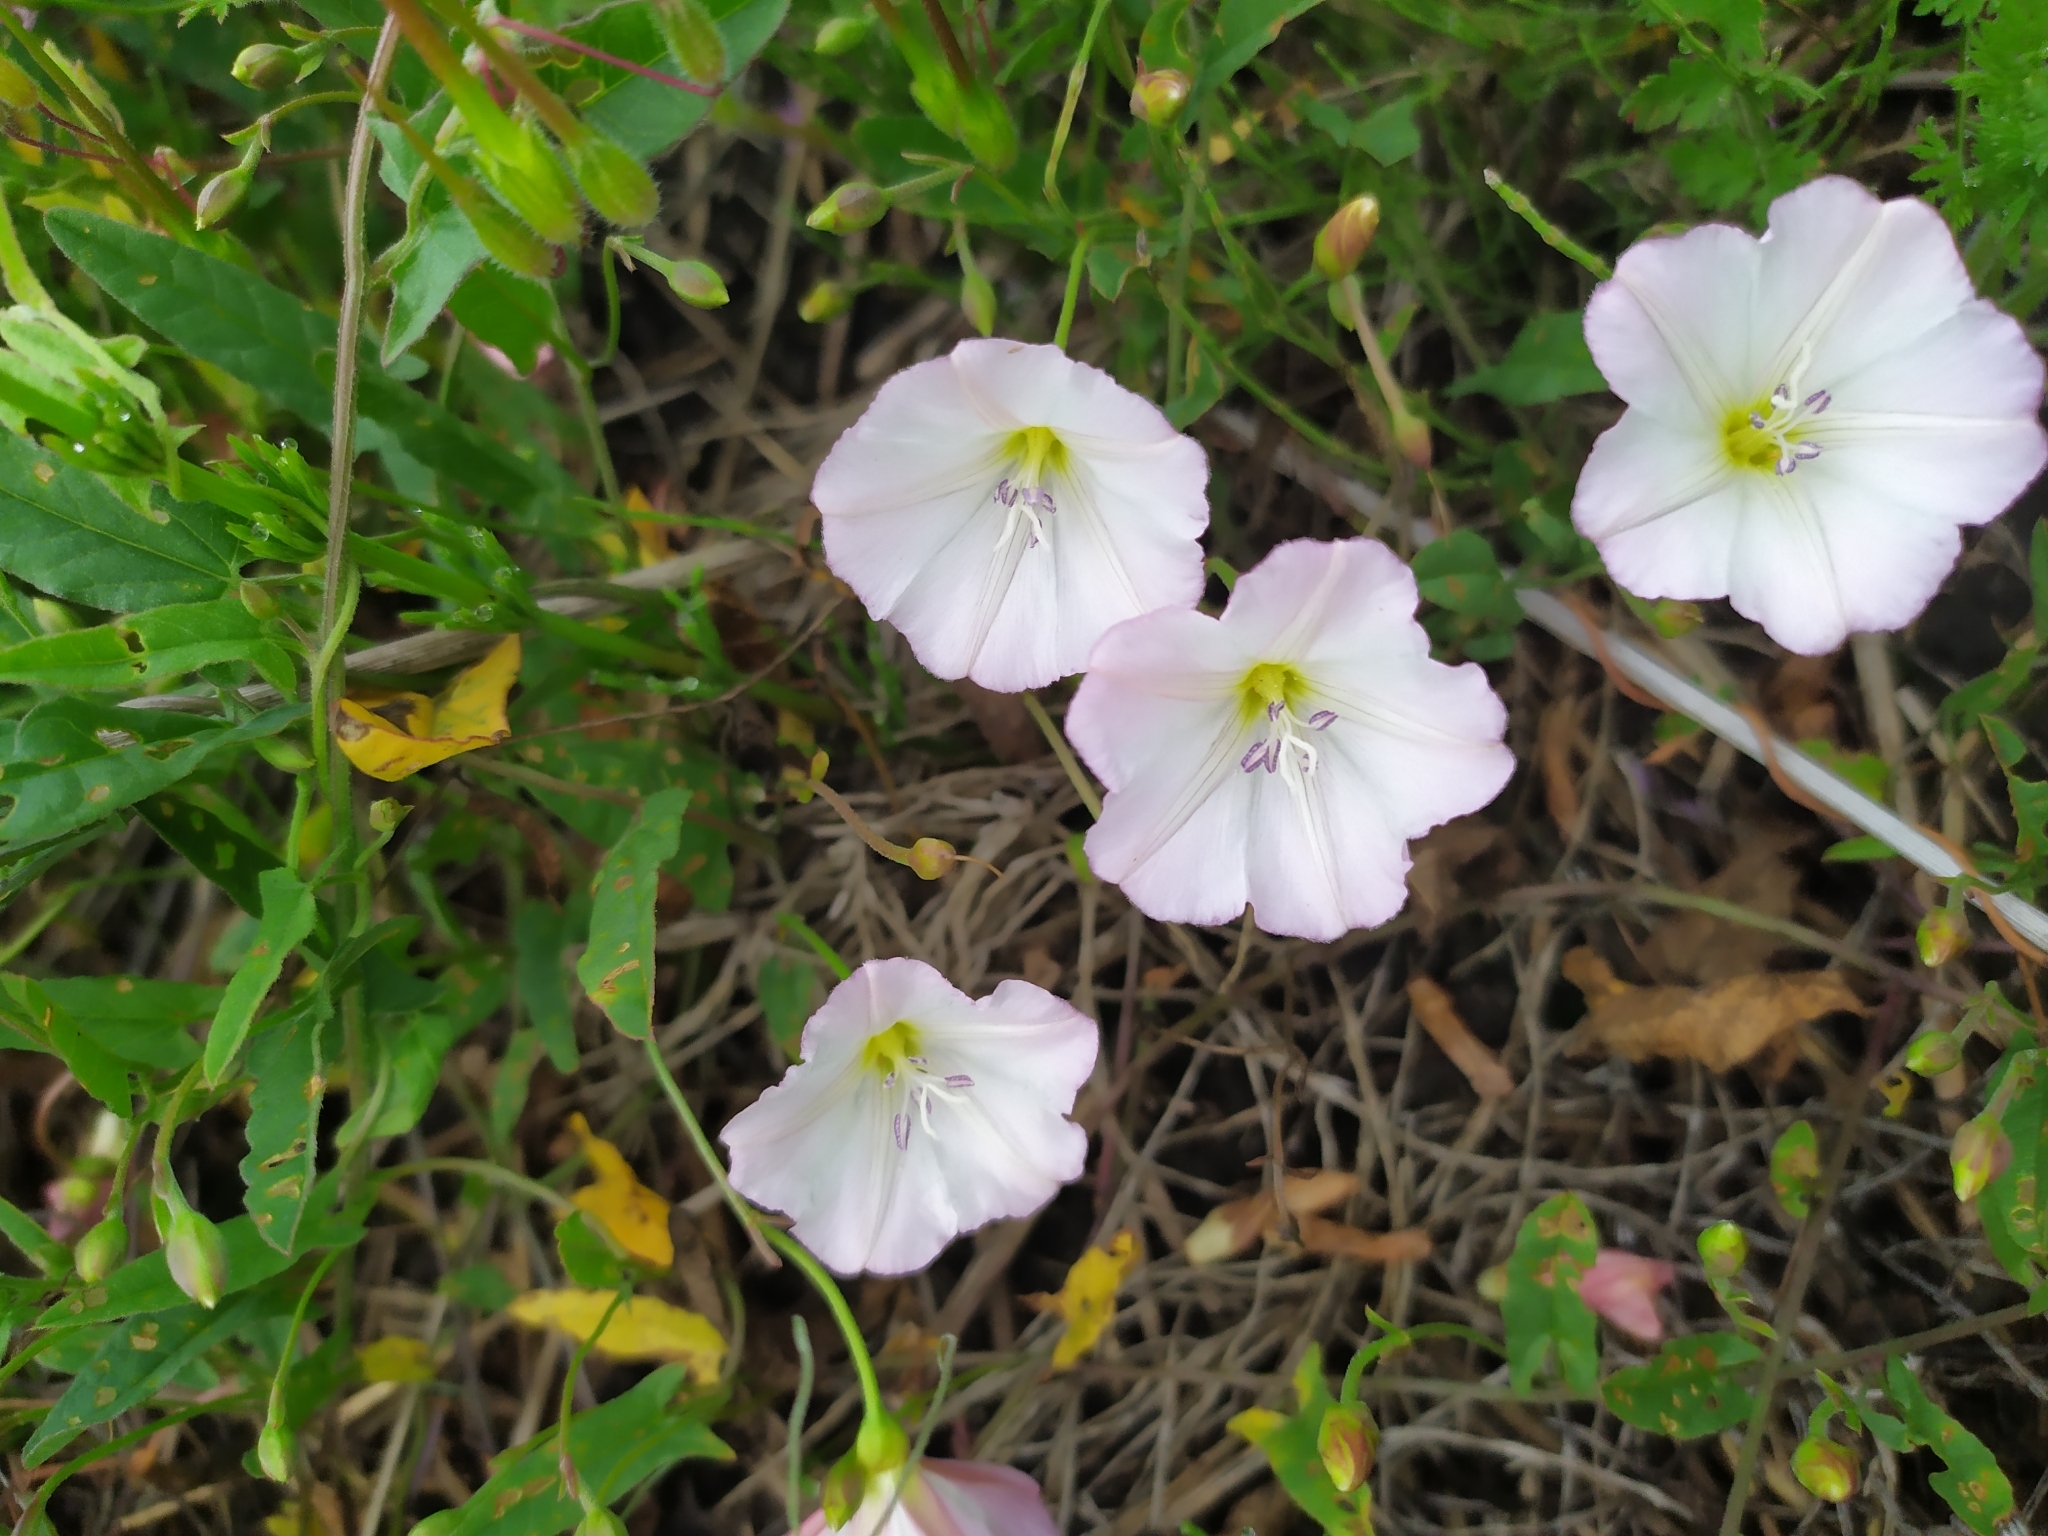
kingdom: Plantae
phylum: Tracheophyta
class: Magnoliopsida
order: Solanales
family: Convolvulaceae
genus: Convolvulus
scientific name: Convolvulus arvensis
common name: Field bindweed
